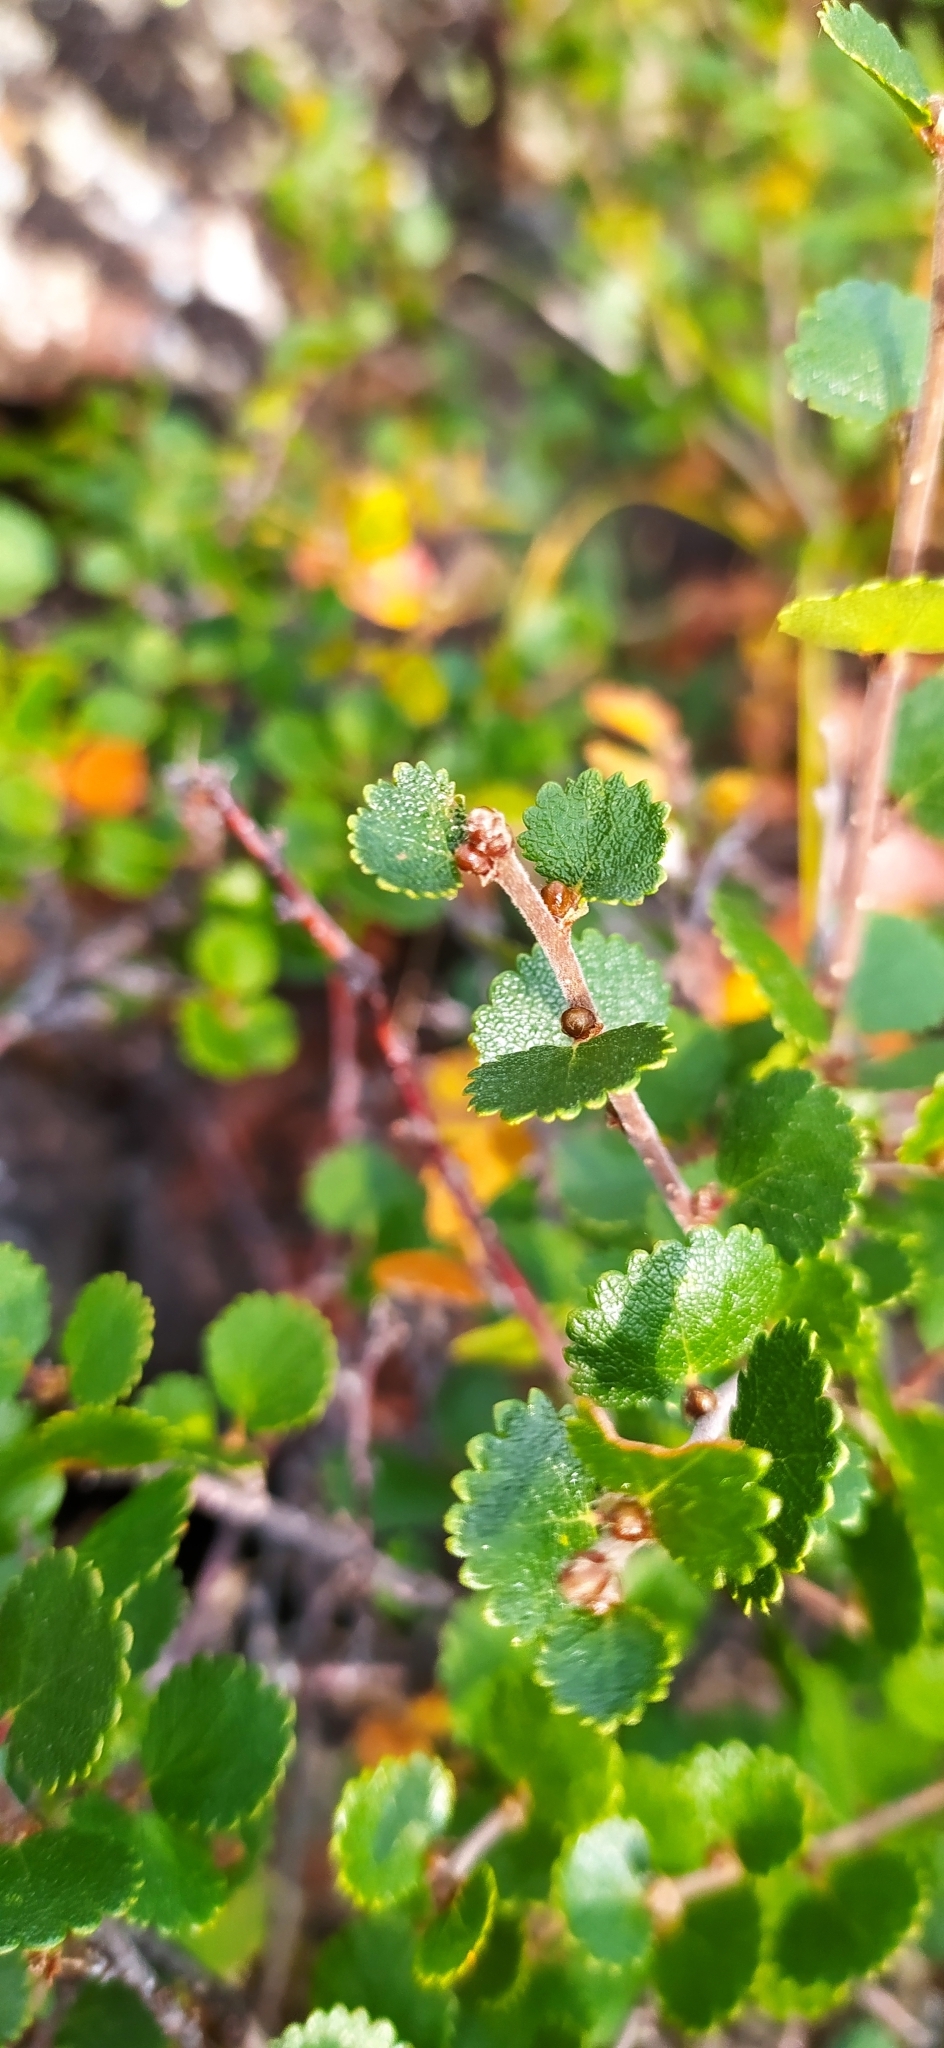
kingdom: Plantae
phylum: Tracheophyta
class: Magnoliopsida
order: Fagales
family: Betulaceae
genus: Betula
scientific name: Betula nana
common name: Arctic dwarf birch
